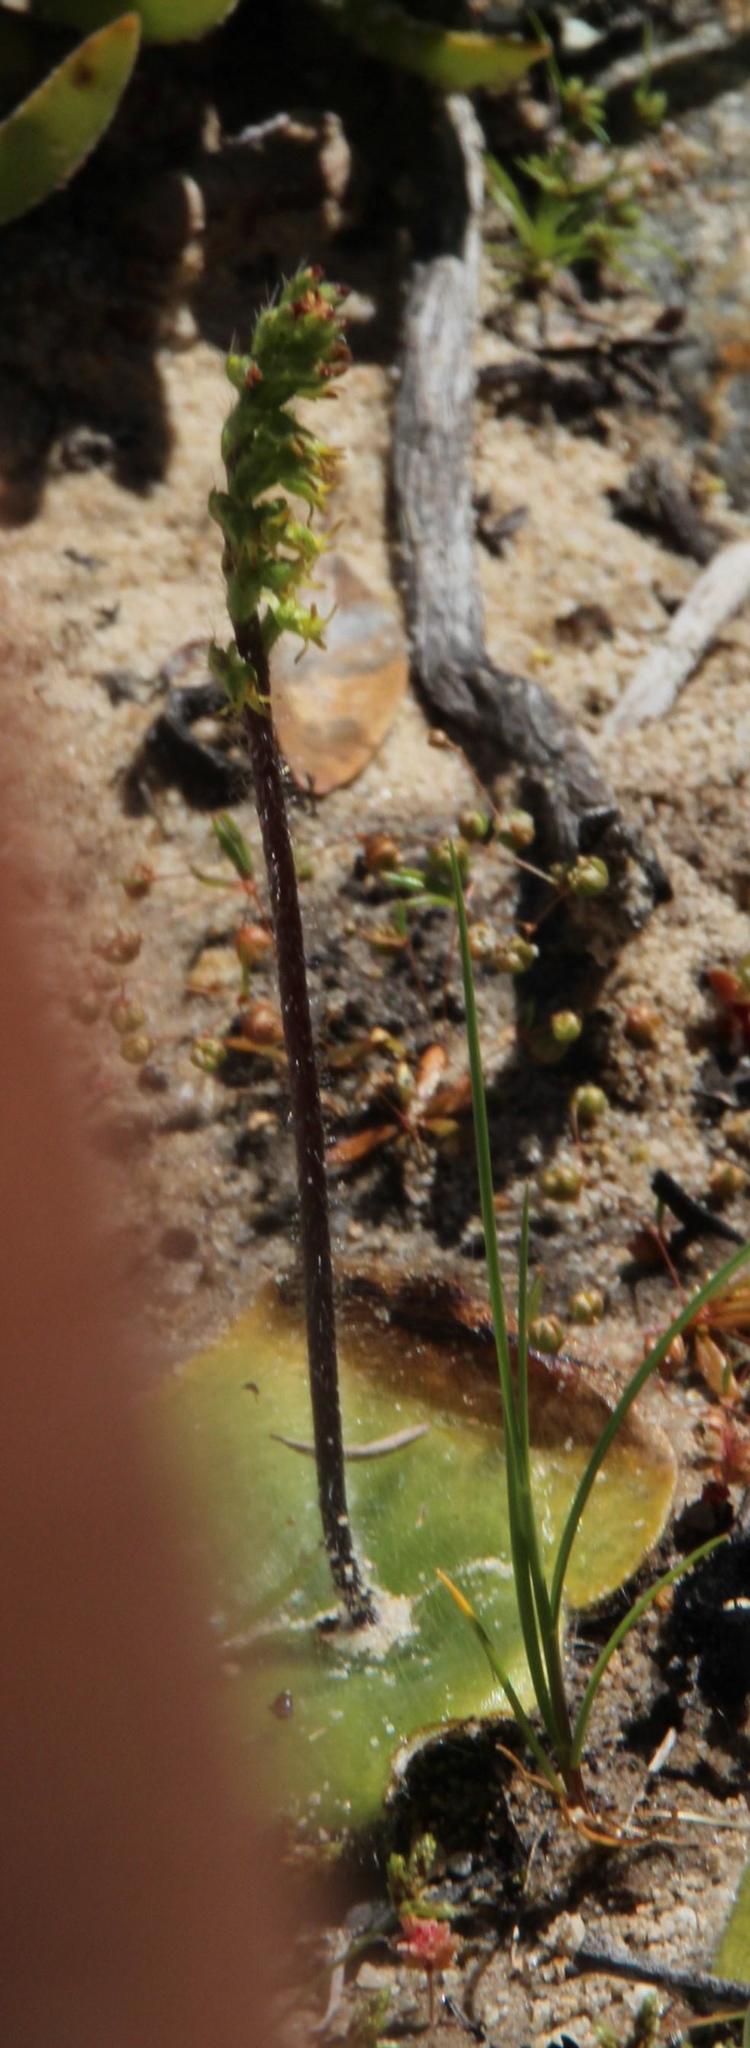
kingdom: Plantae
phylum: Tracheophyta
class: Liliopsida
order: Asparagales
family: Orchidaceae
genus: Holothrix
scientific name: Holothrix villosa
